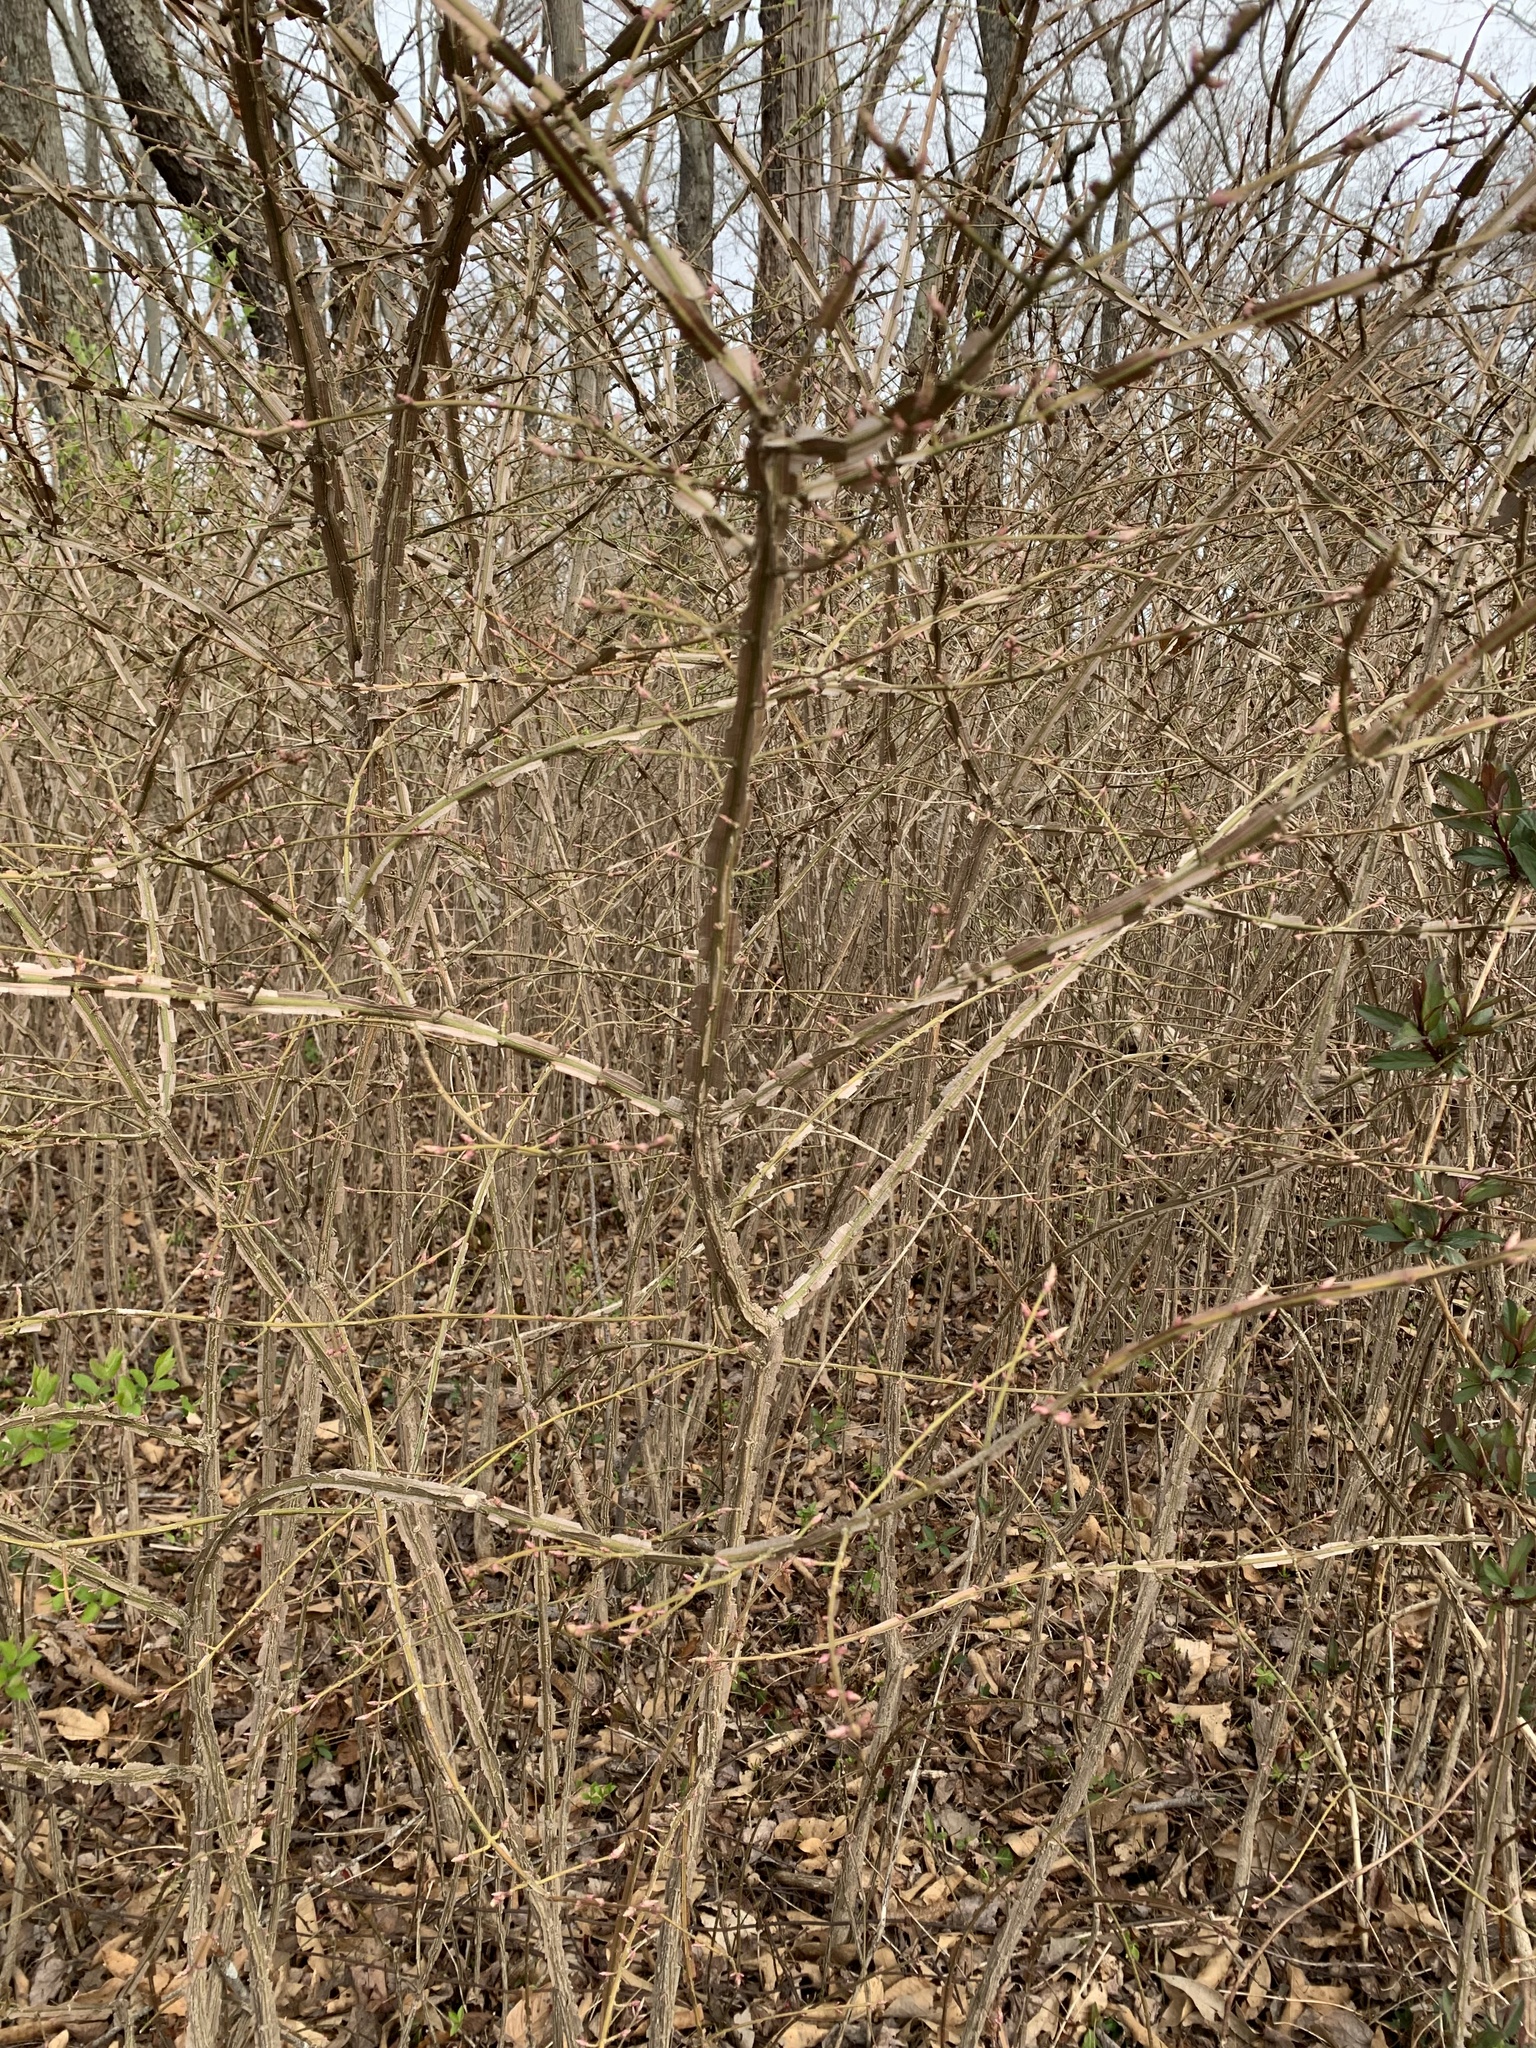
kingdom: Plantae
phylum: Tracheophyta
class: Magnoliopsida
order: Celastrales
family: Celastraceae
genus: Euonymus
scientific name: Euonymus alatus
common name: Winged euonymus
